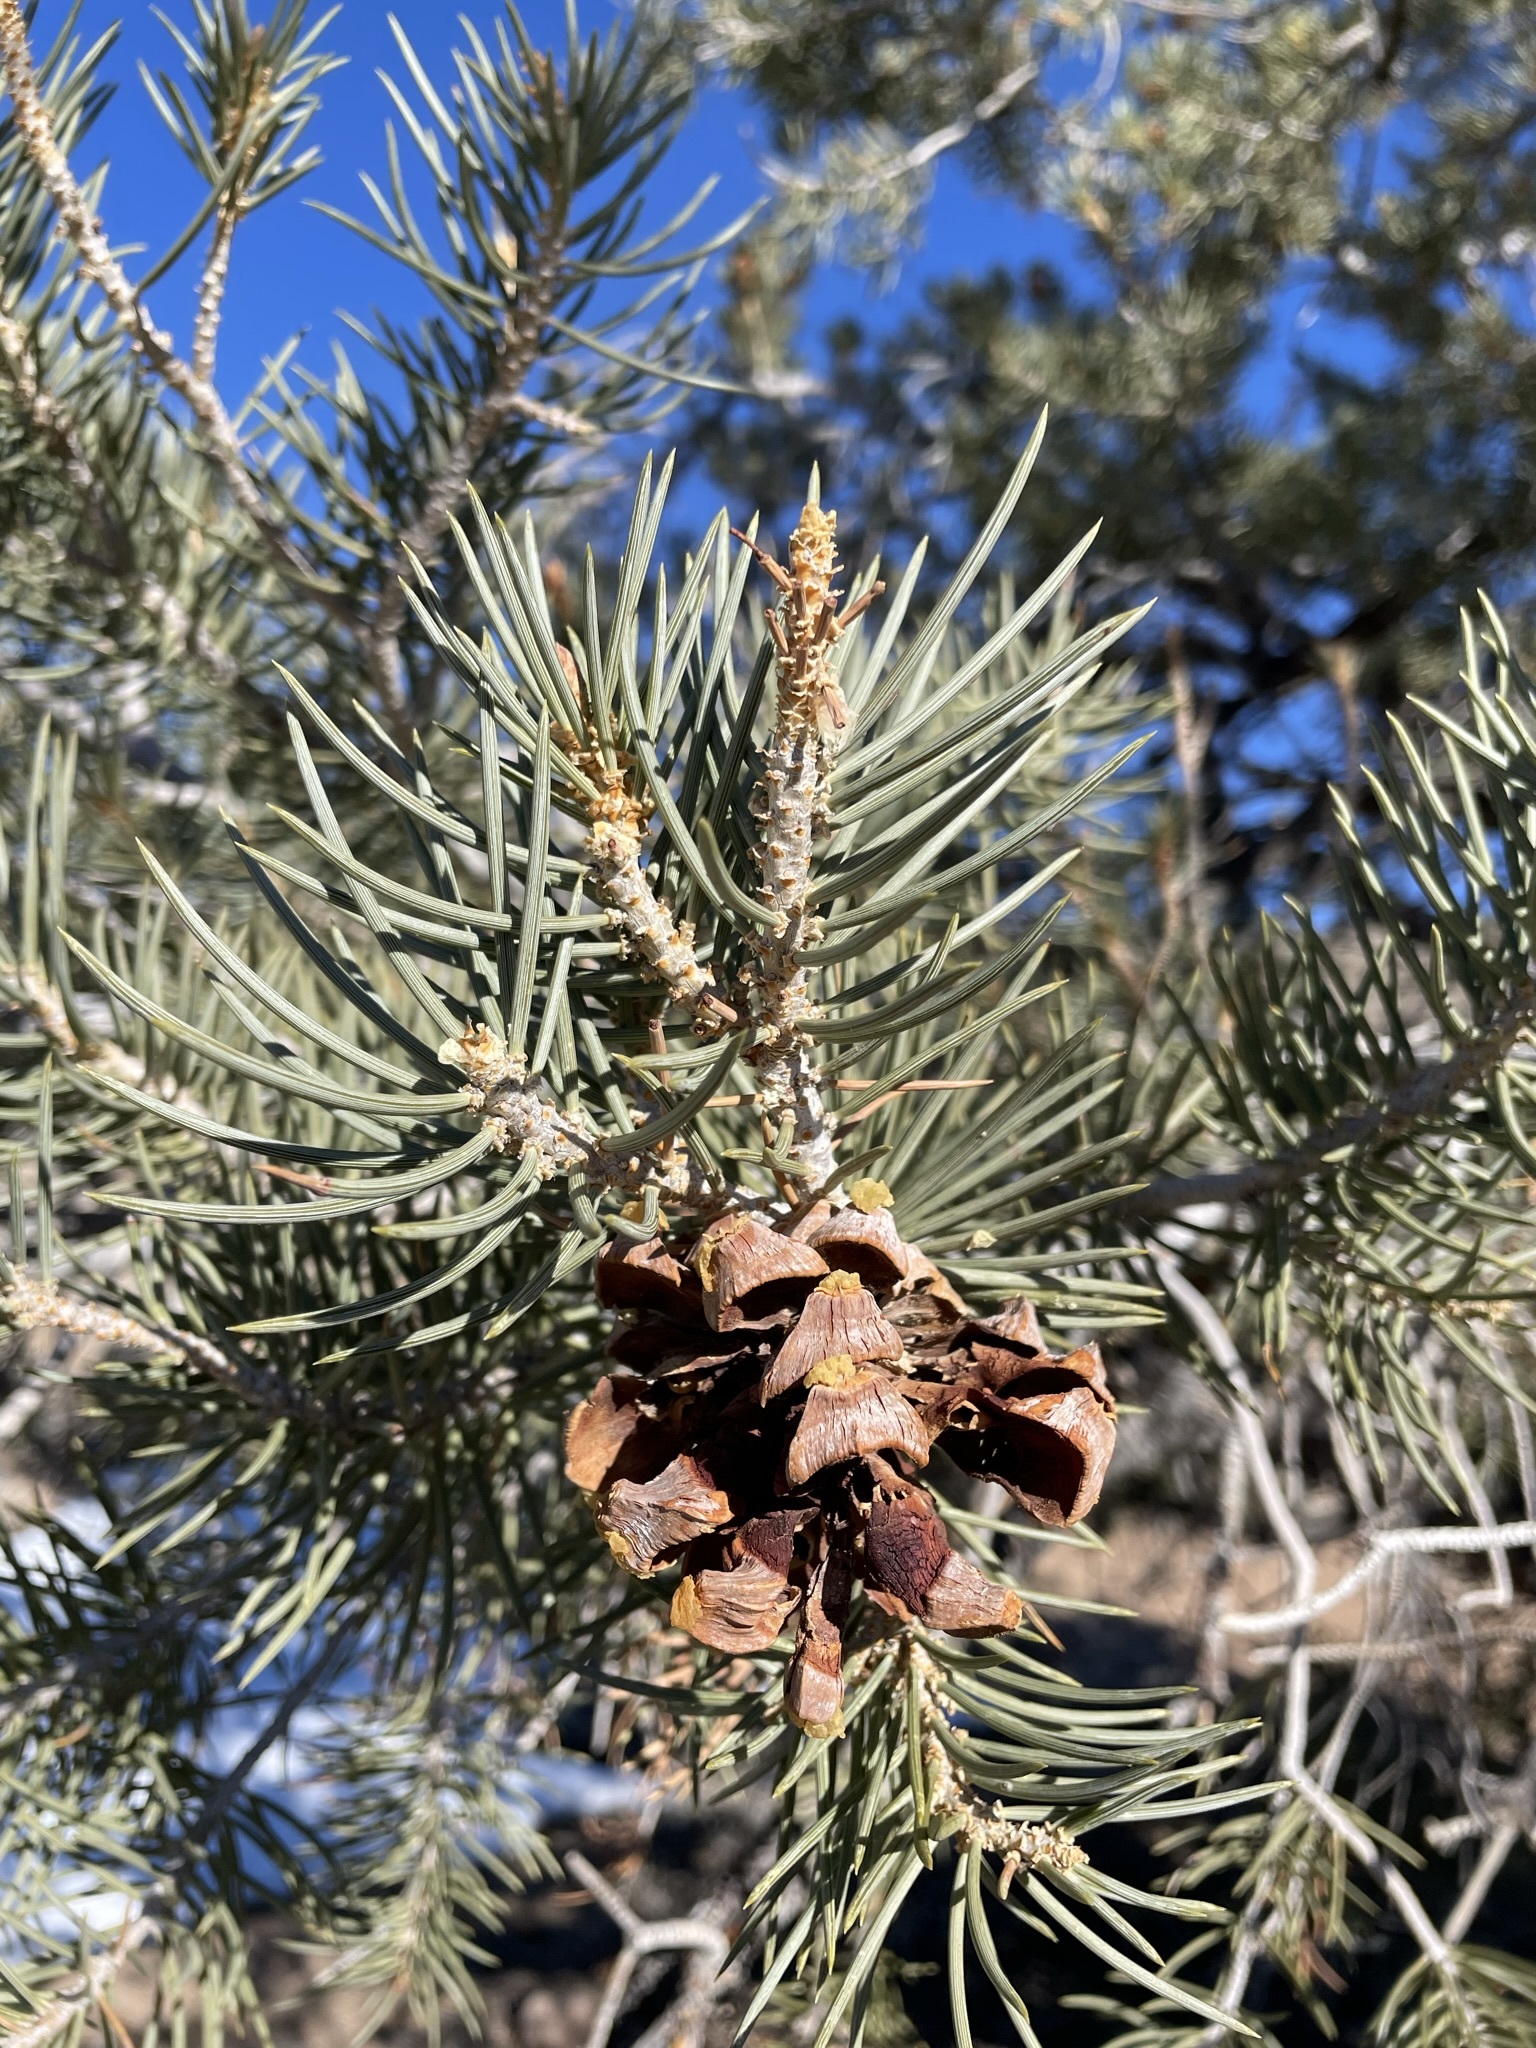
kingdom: Plantae
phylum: Tracheophyta
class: Pinopsida
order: Pinales
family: Pinaceae
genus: Pinus
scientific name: Pinus monophylla
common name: One-leaved nut pine
